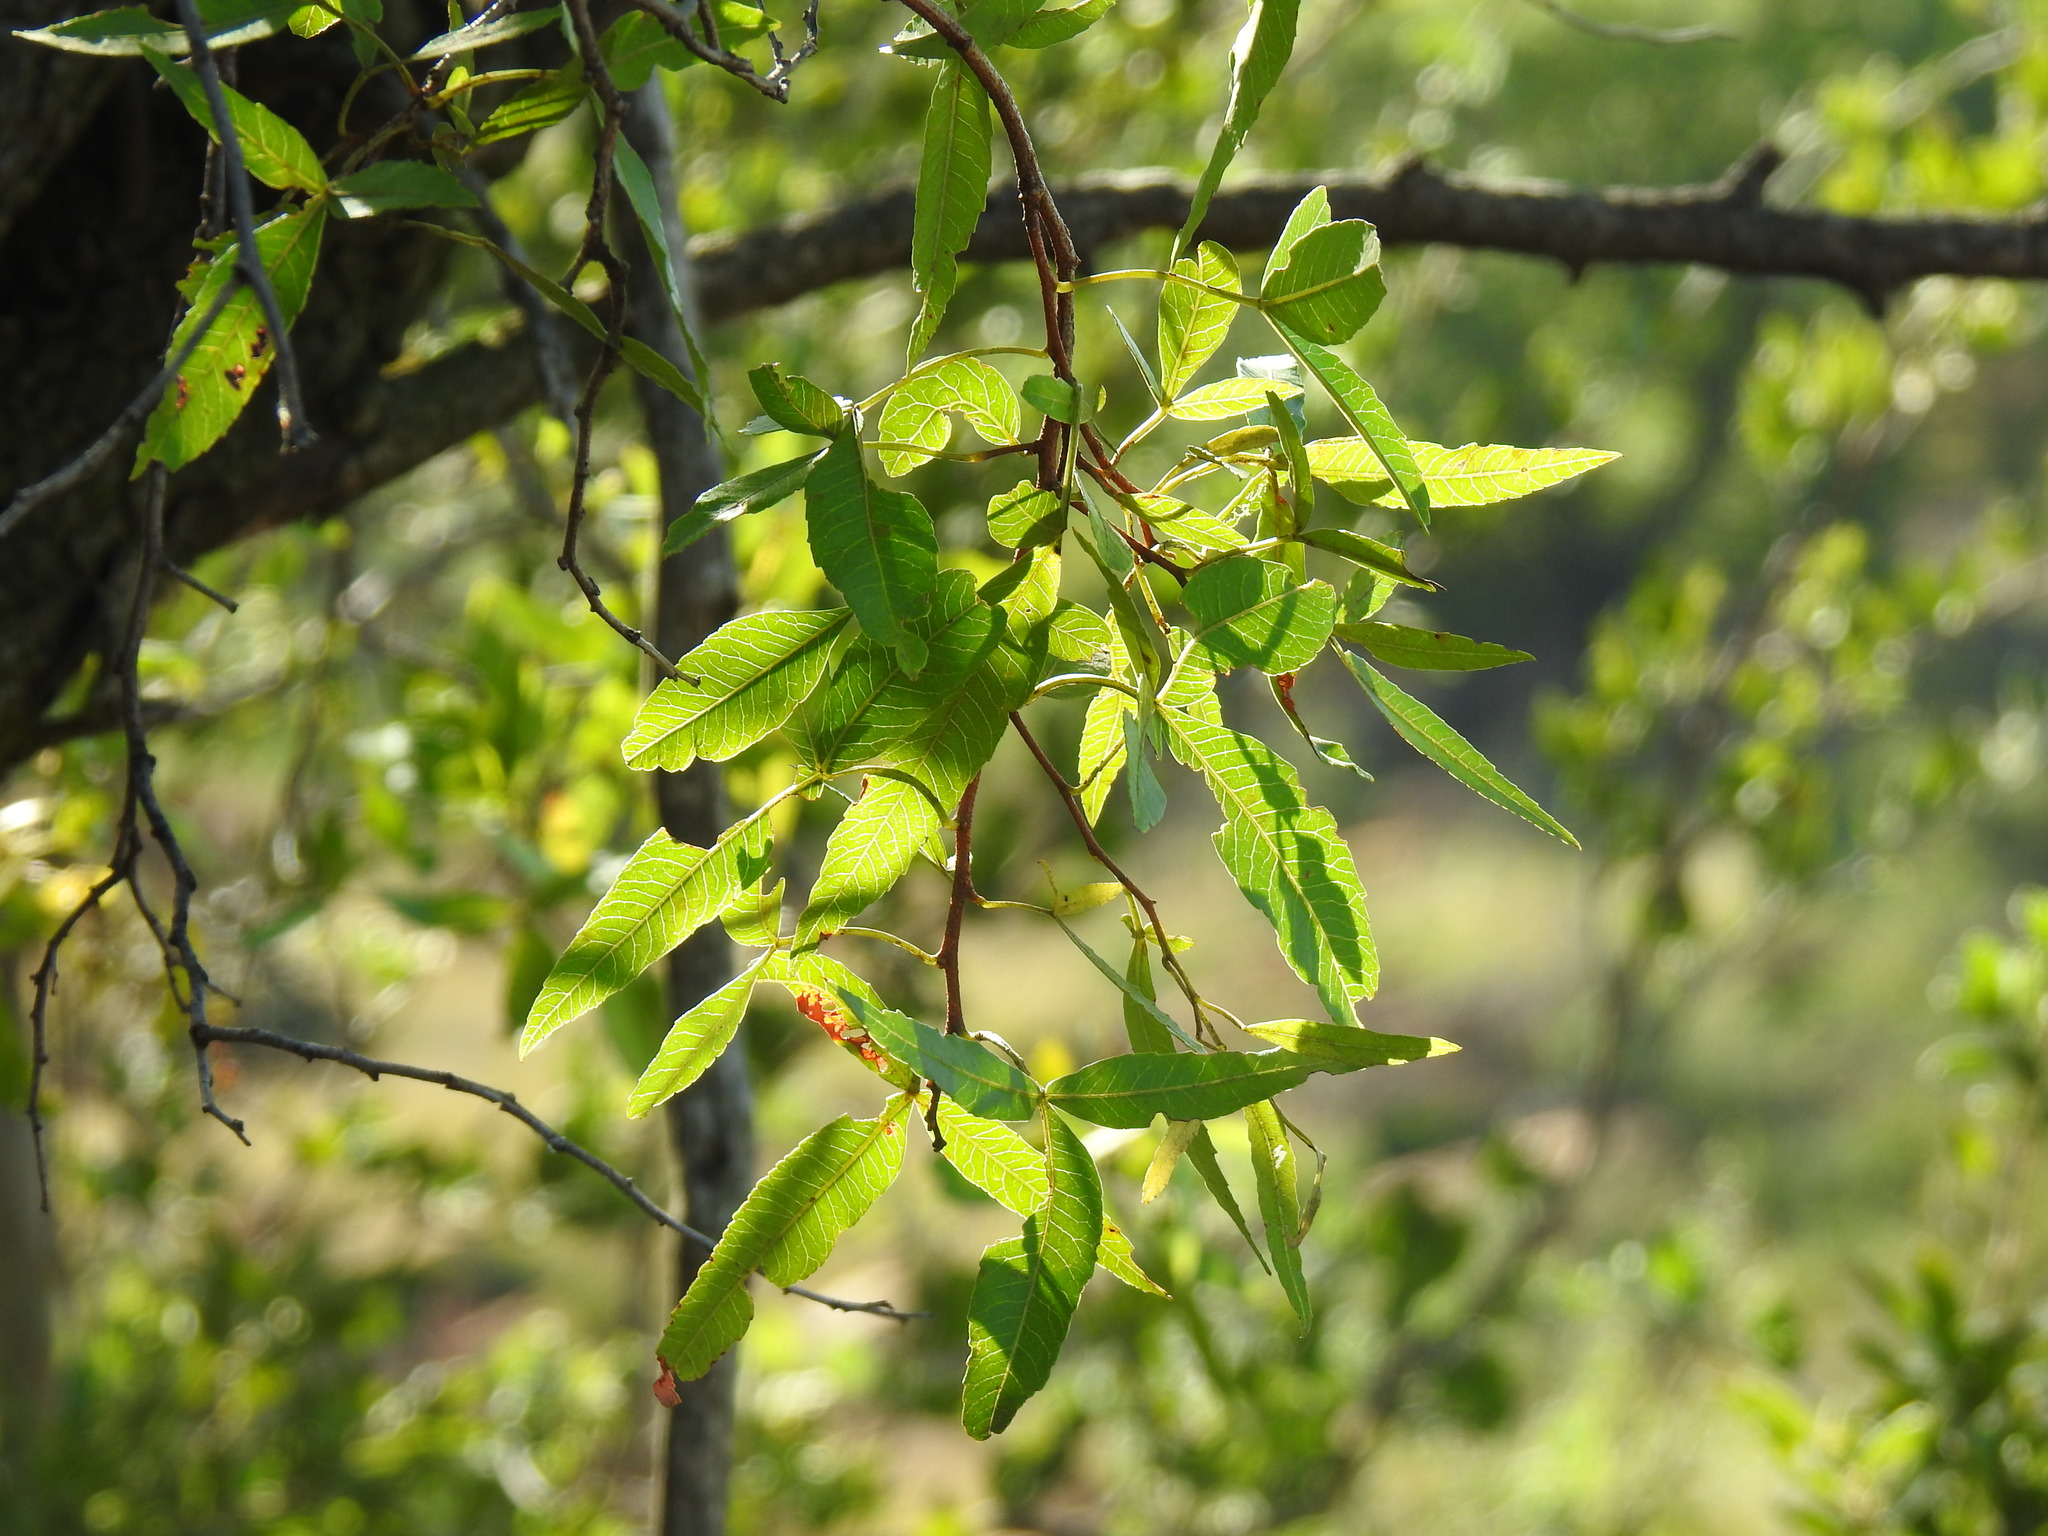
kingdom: Plantae
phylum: Tracheophyta
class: Magnoliopsida
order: Sapindales
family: Anacardiaceae
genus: Searsia
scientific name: Searsia leptodictya
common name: Mountain karee
